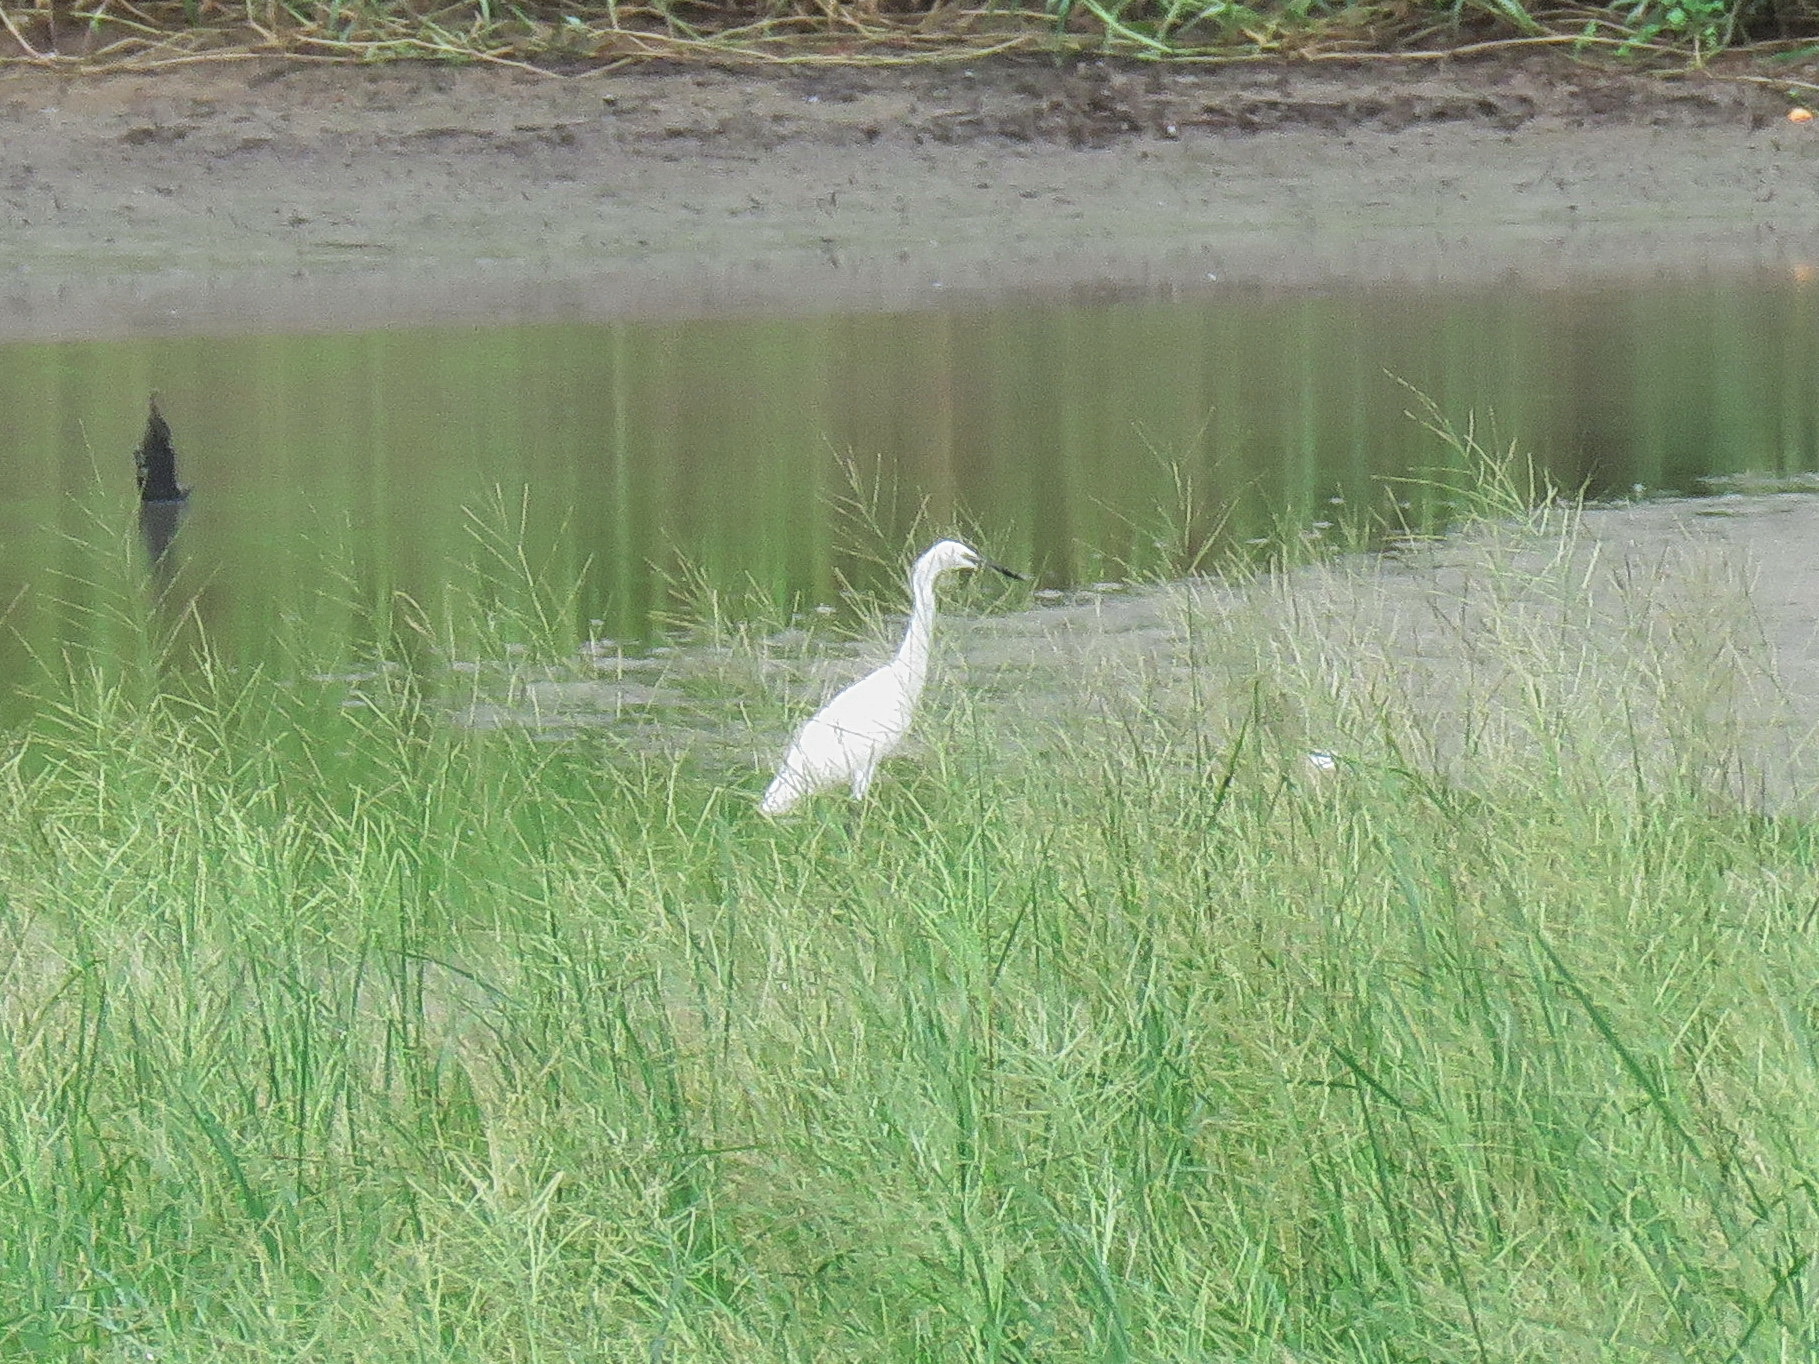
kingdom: Animalia
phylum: Chordata
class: Aves
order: Pelecaniformes
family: Ardeidae
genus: Egretta
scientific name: Egretta garzetta
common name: Little egret
